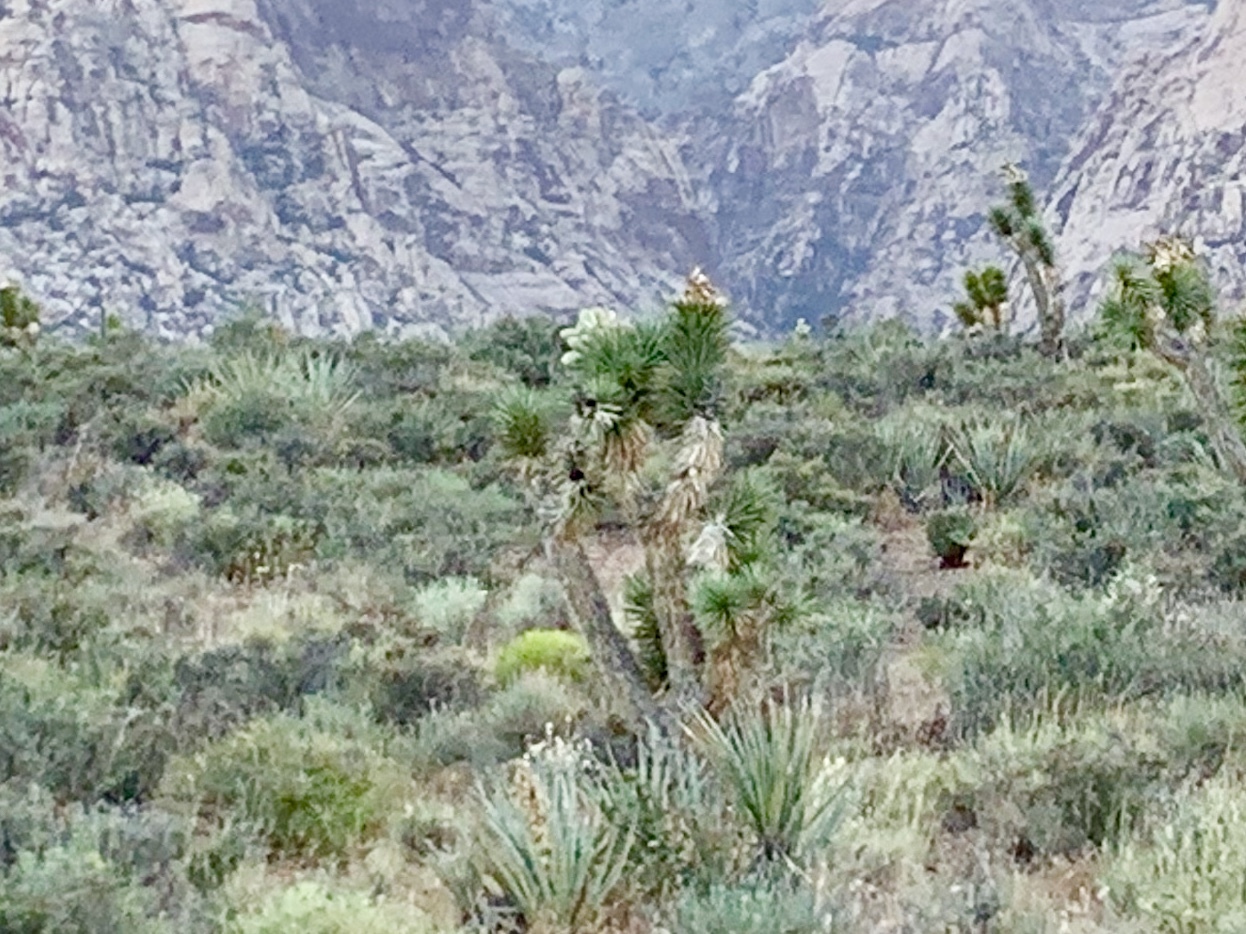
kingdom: Plantae
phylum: Tracheophyta
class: Liliopsida
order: Asparagales
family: Asparagaceae
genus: Yucca
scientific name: Yucca brevifolia
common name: Joshua tree
